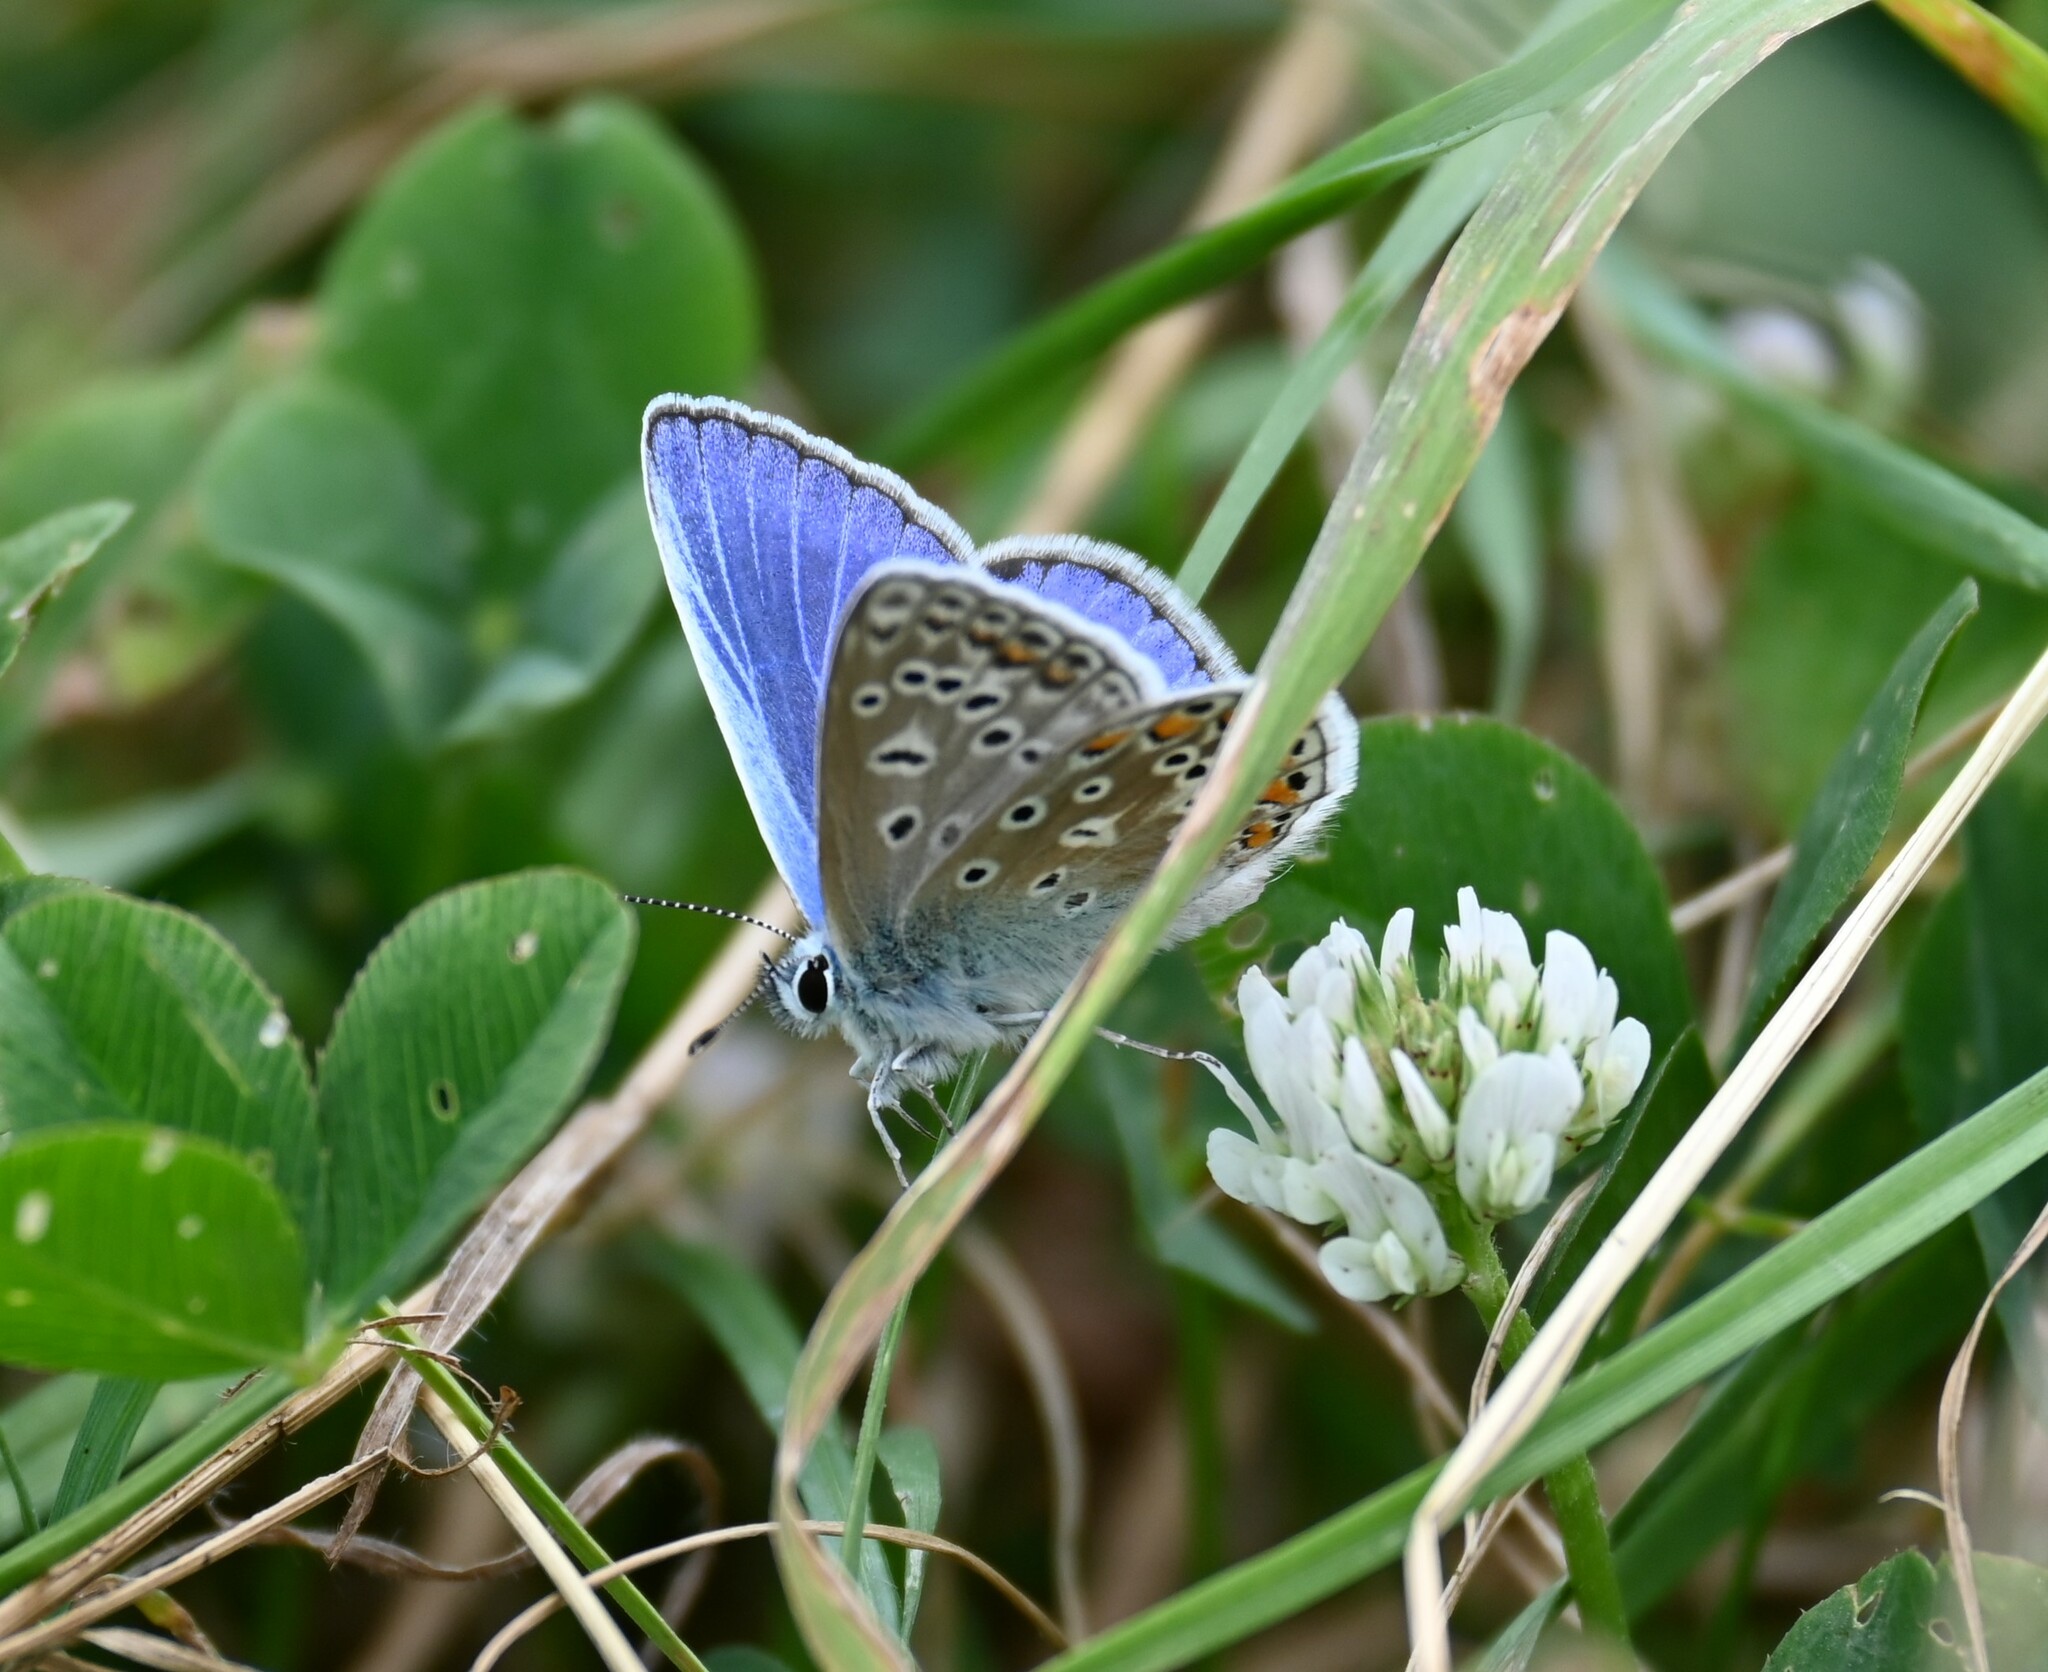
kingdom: Animalia
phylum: Arthropoda
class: Insecta
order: Lepidoptera
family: Lycaenidae
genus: Polyommatus
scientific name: Polyommatus icarus
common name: Common blue
